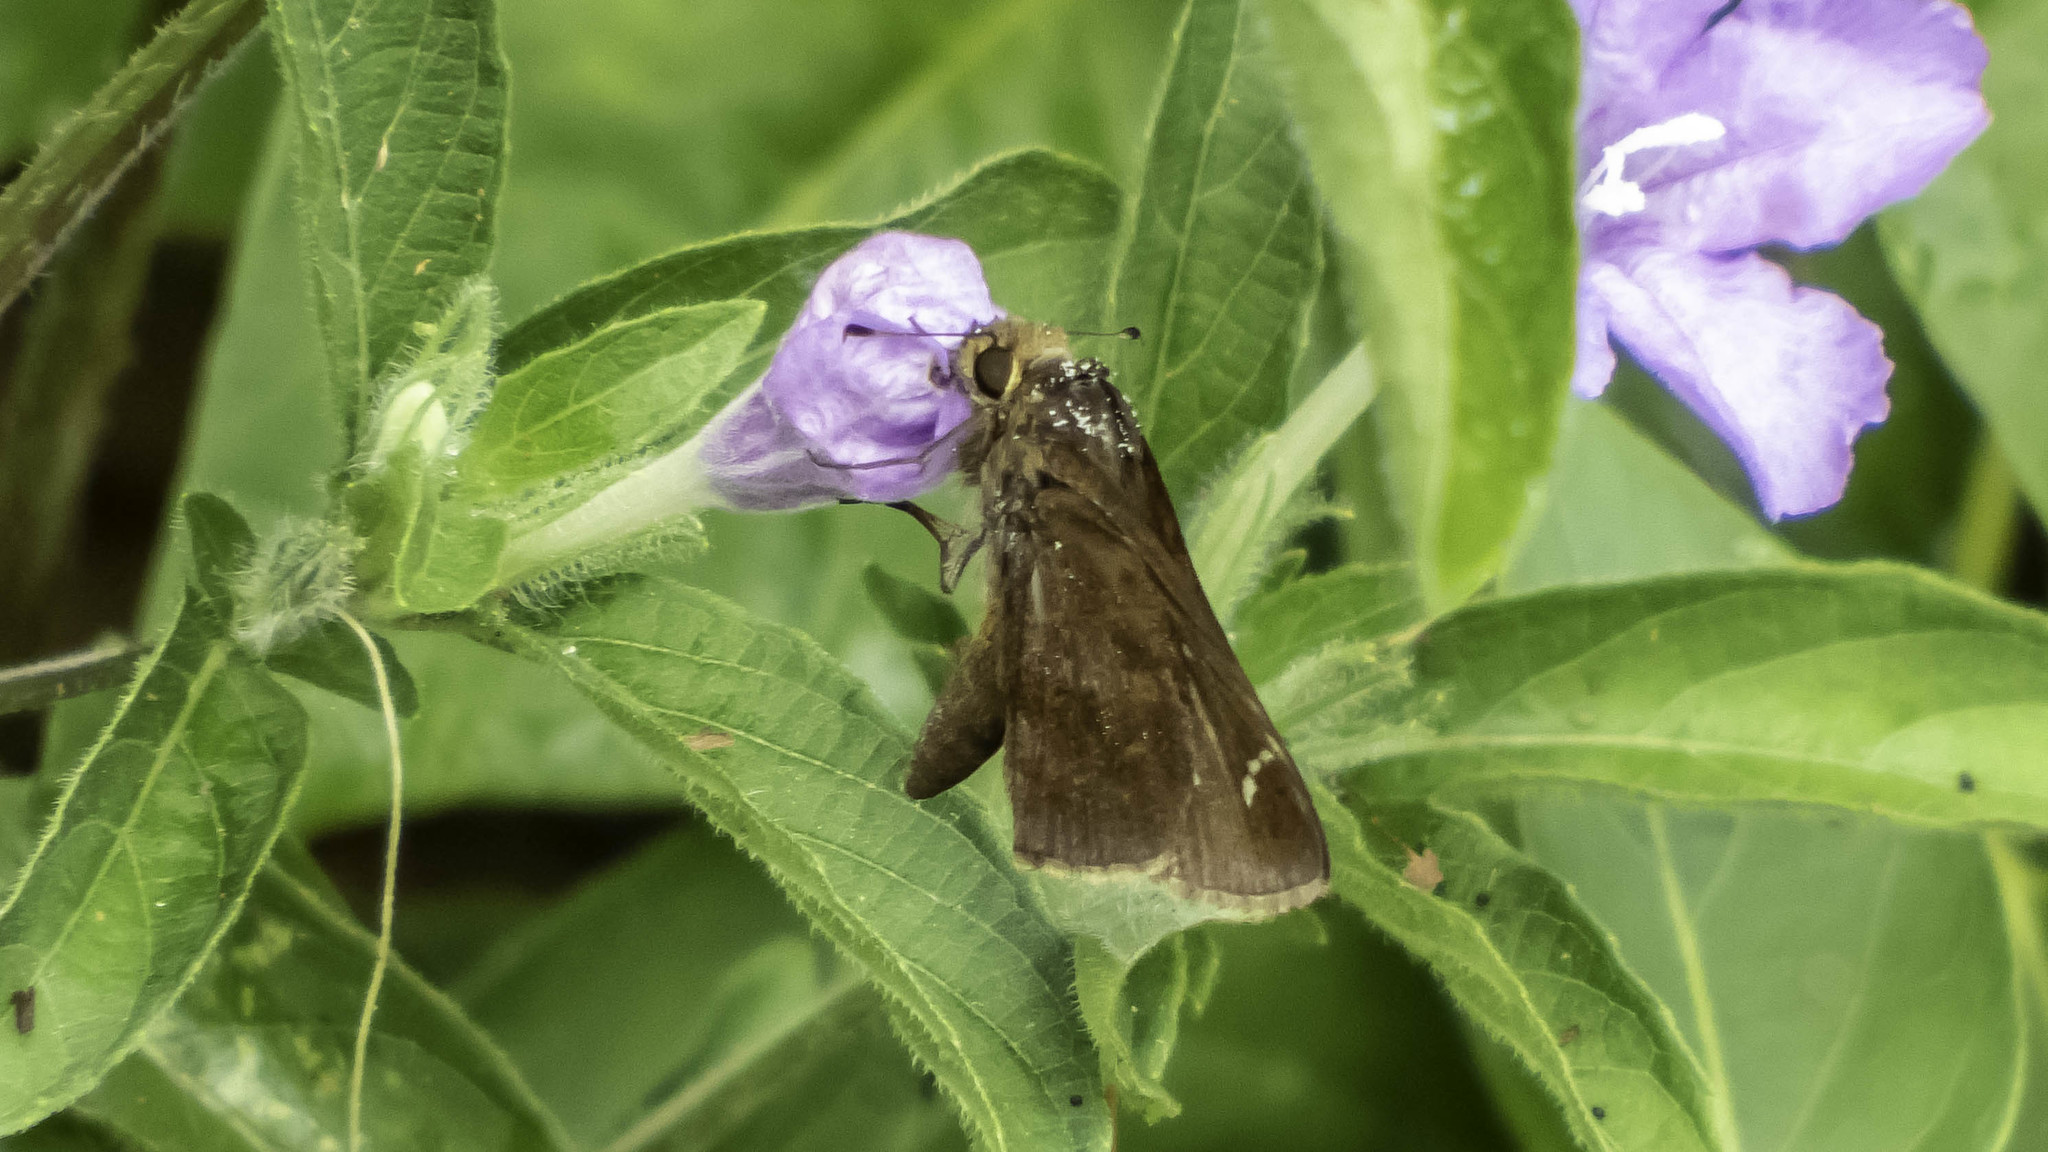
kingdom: Animalia
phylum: Arthropoda
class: Insecta
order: Lepidoptera
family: Hesperiidae
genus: Lerema
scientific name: Lerema accius
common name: Clouded skipper
